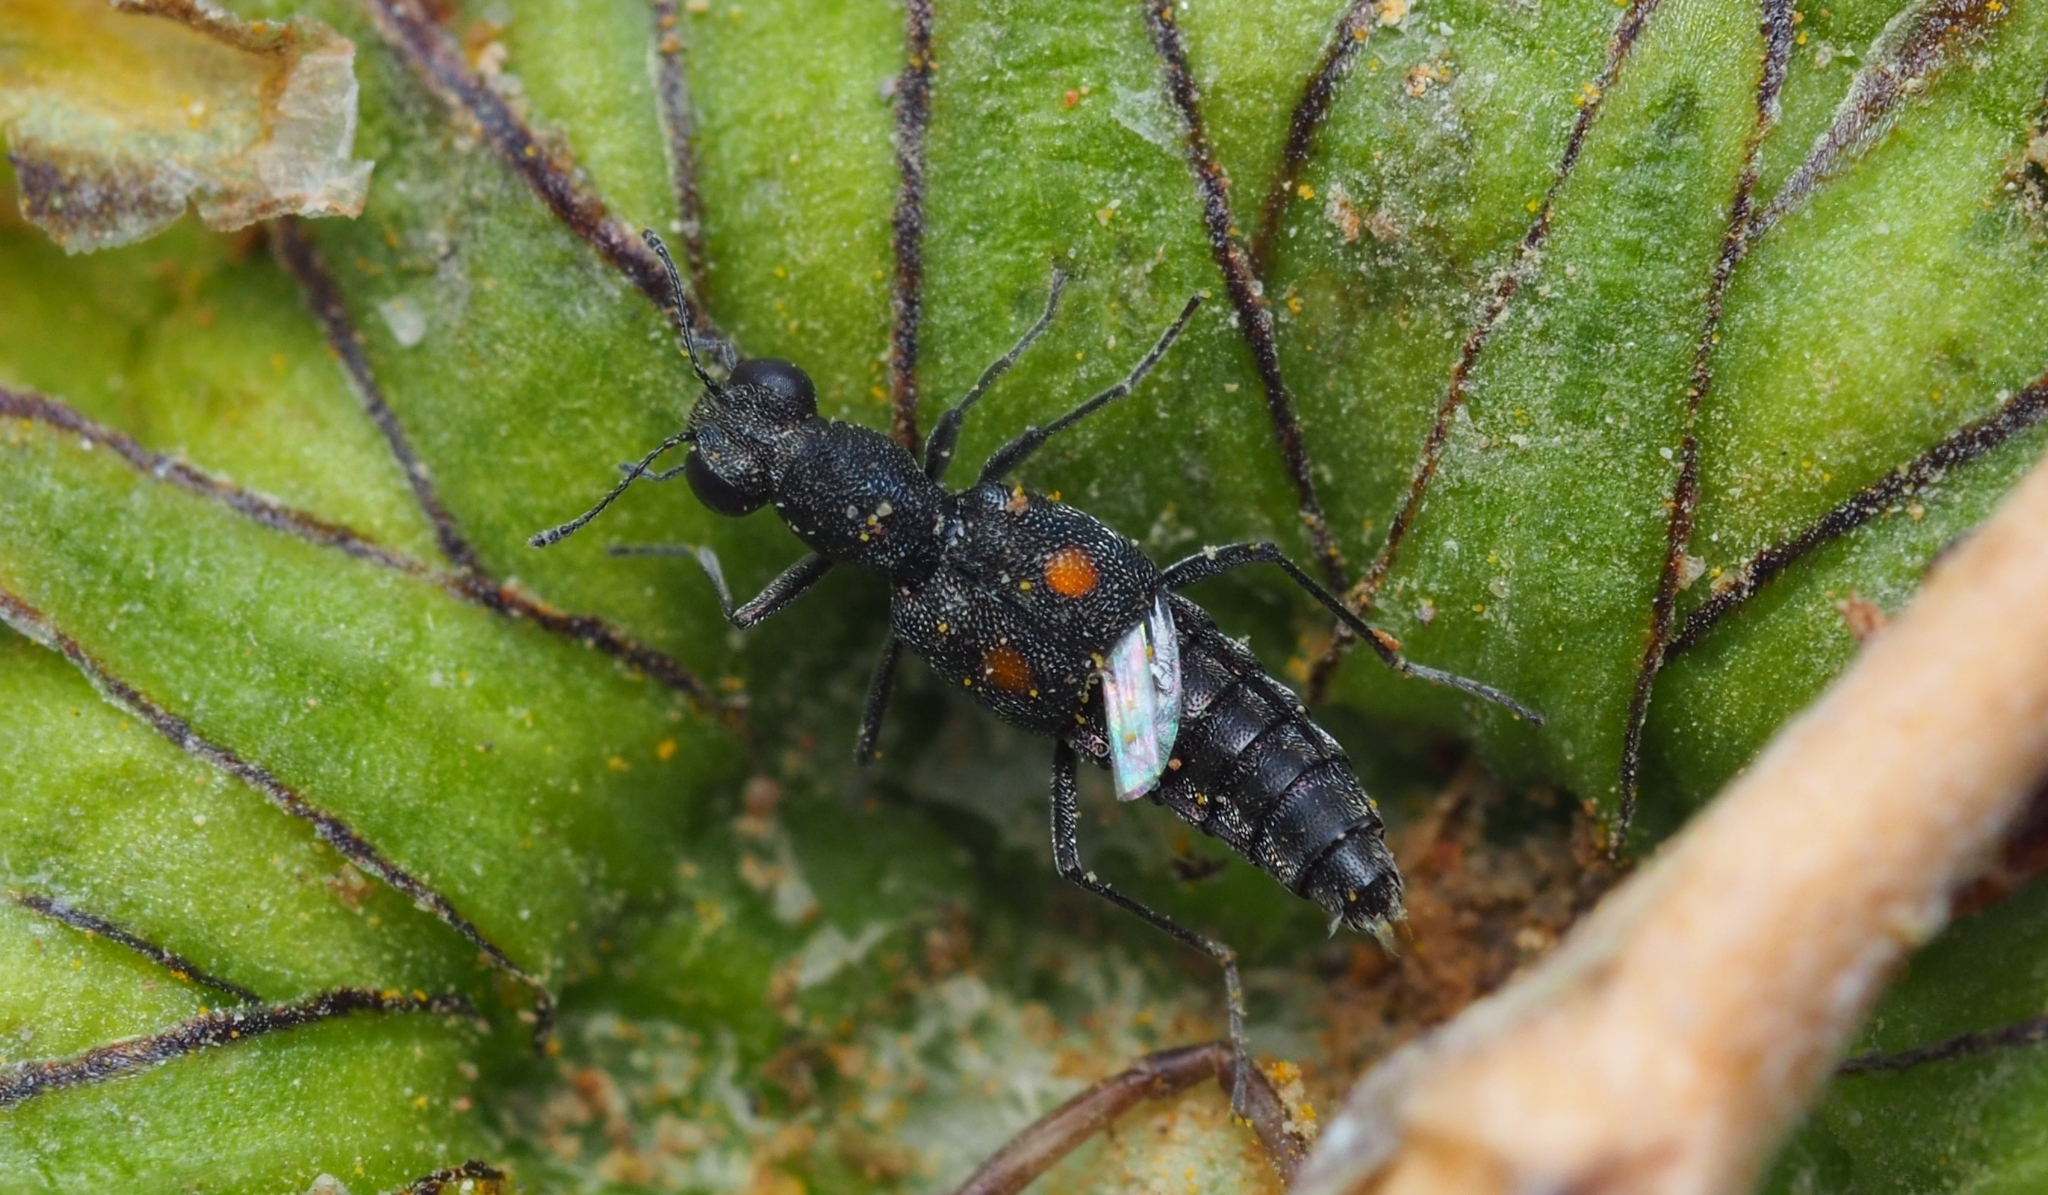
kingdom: Animalia
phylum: Arthropoda
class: Insecta
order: Coleoptera
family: Staphylinidae
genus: Stenus
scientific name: Stenus comma
